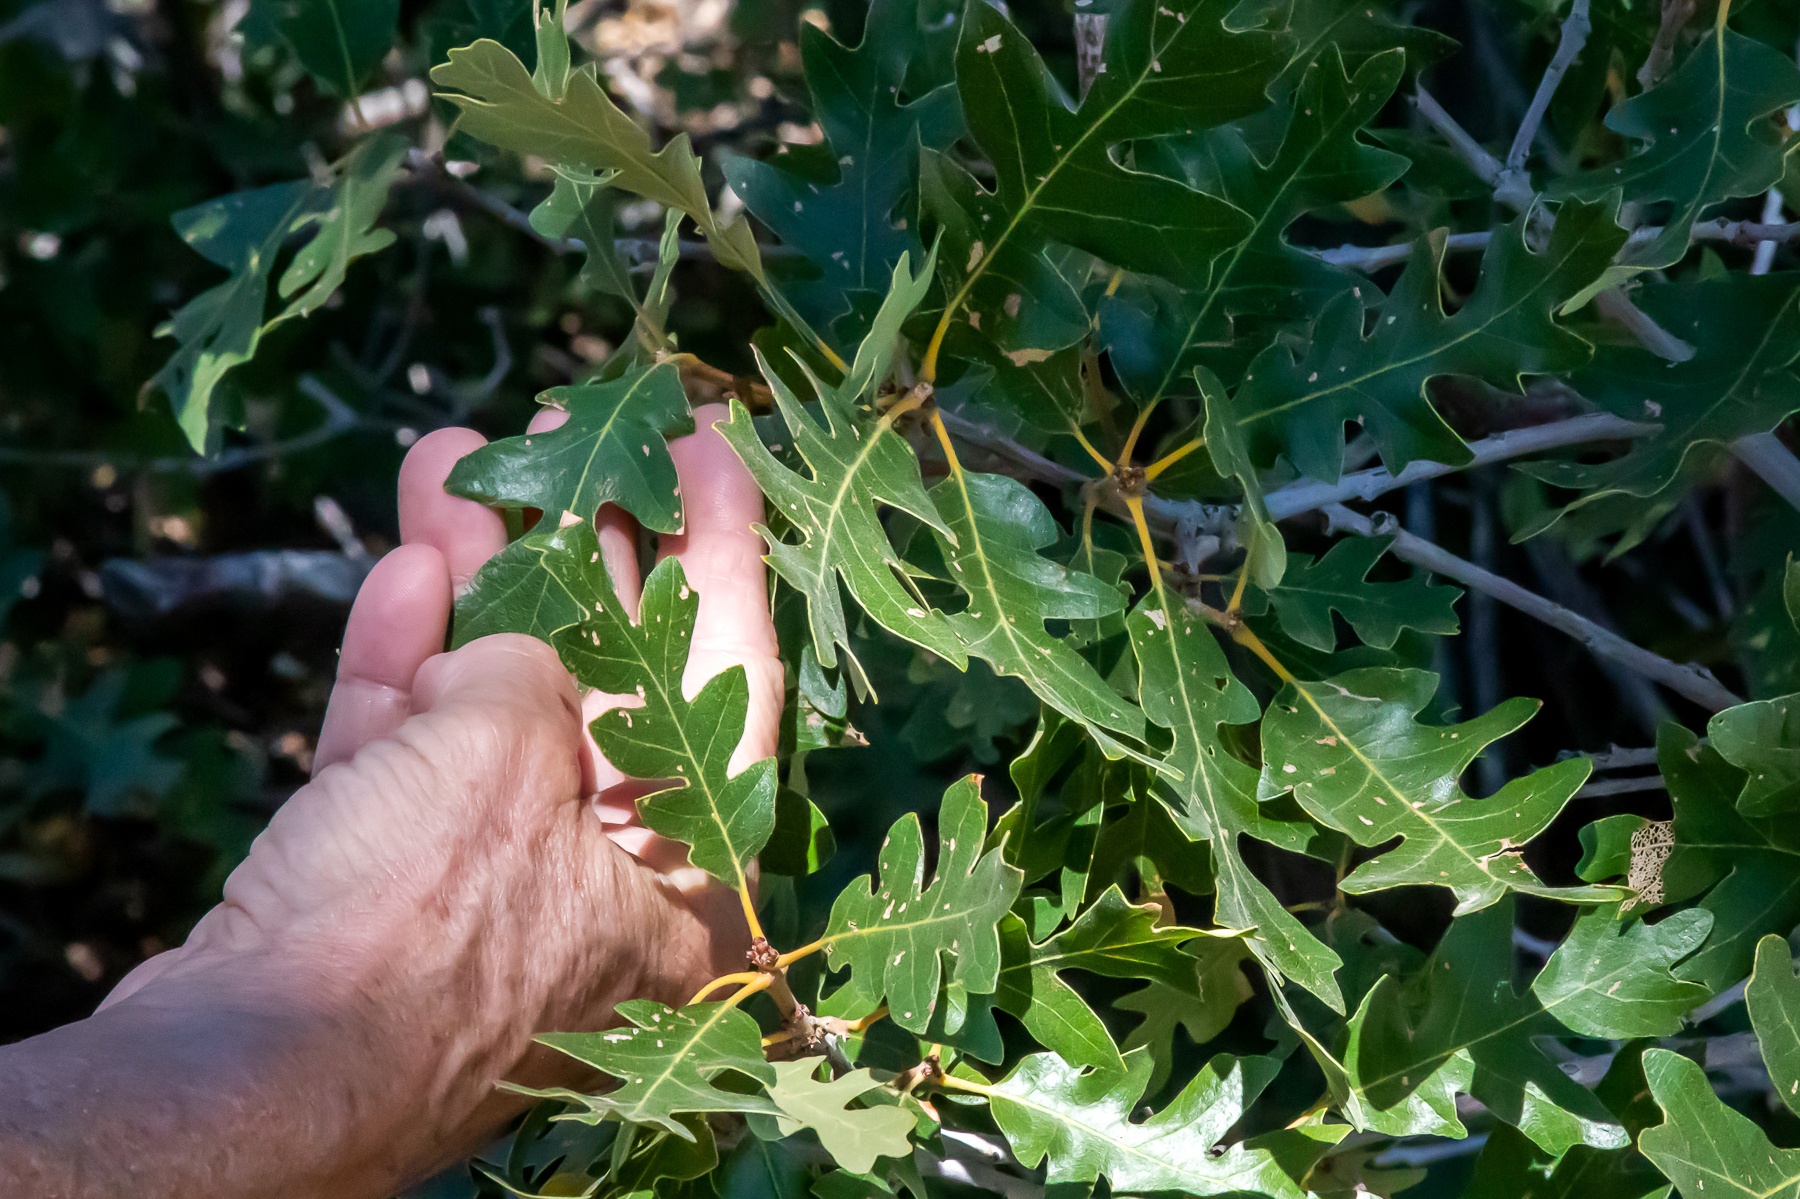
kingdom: Plantae
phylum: Tracheophyta
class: Magnoliopsida
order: Fagales
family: Fagaceae
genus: Quercus
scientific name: Quercus gambelii
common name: Gambel oak
